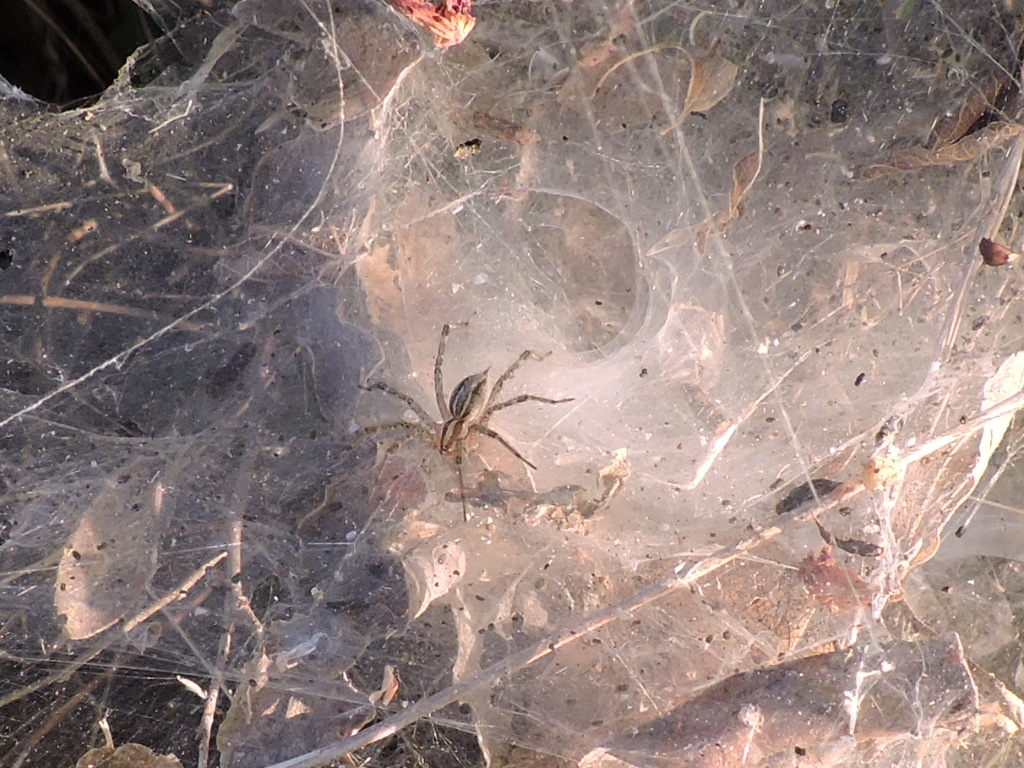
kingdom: Animalia
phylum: Arthropoda
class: Arachnida
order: Araneae
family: Agelenidae
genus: Agelenopsis
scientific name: Agelenopsis
